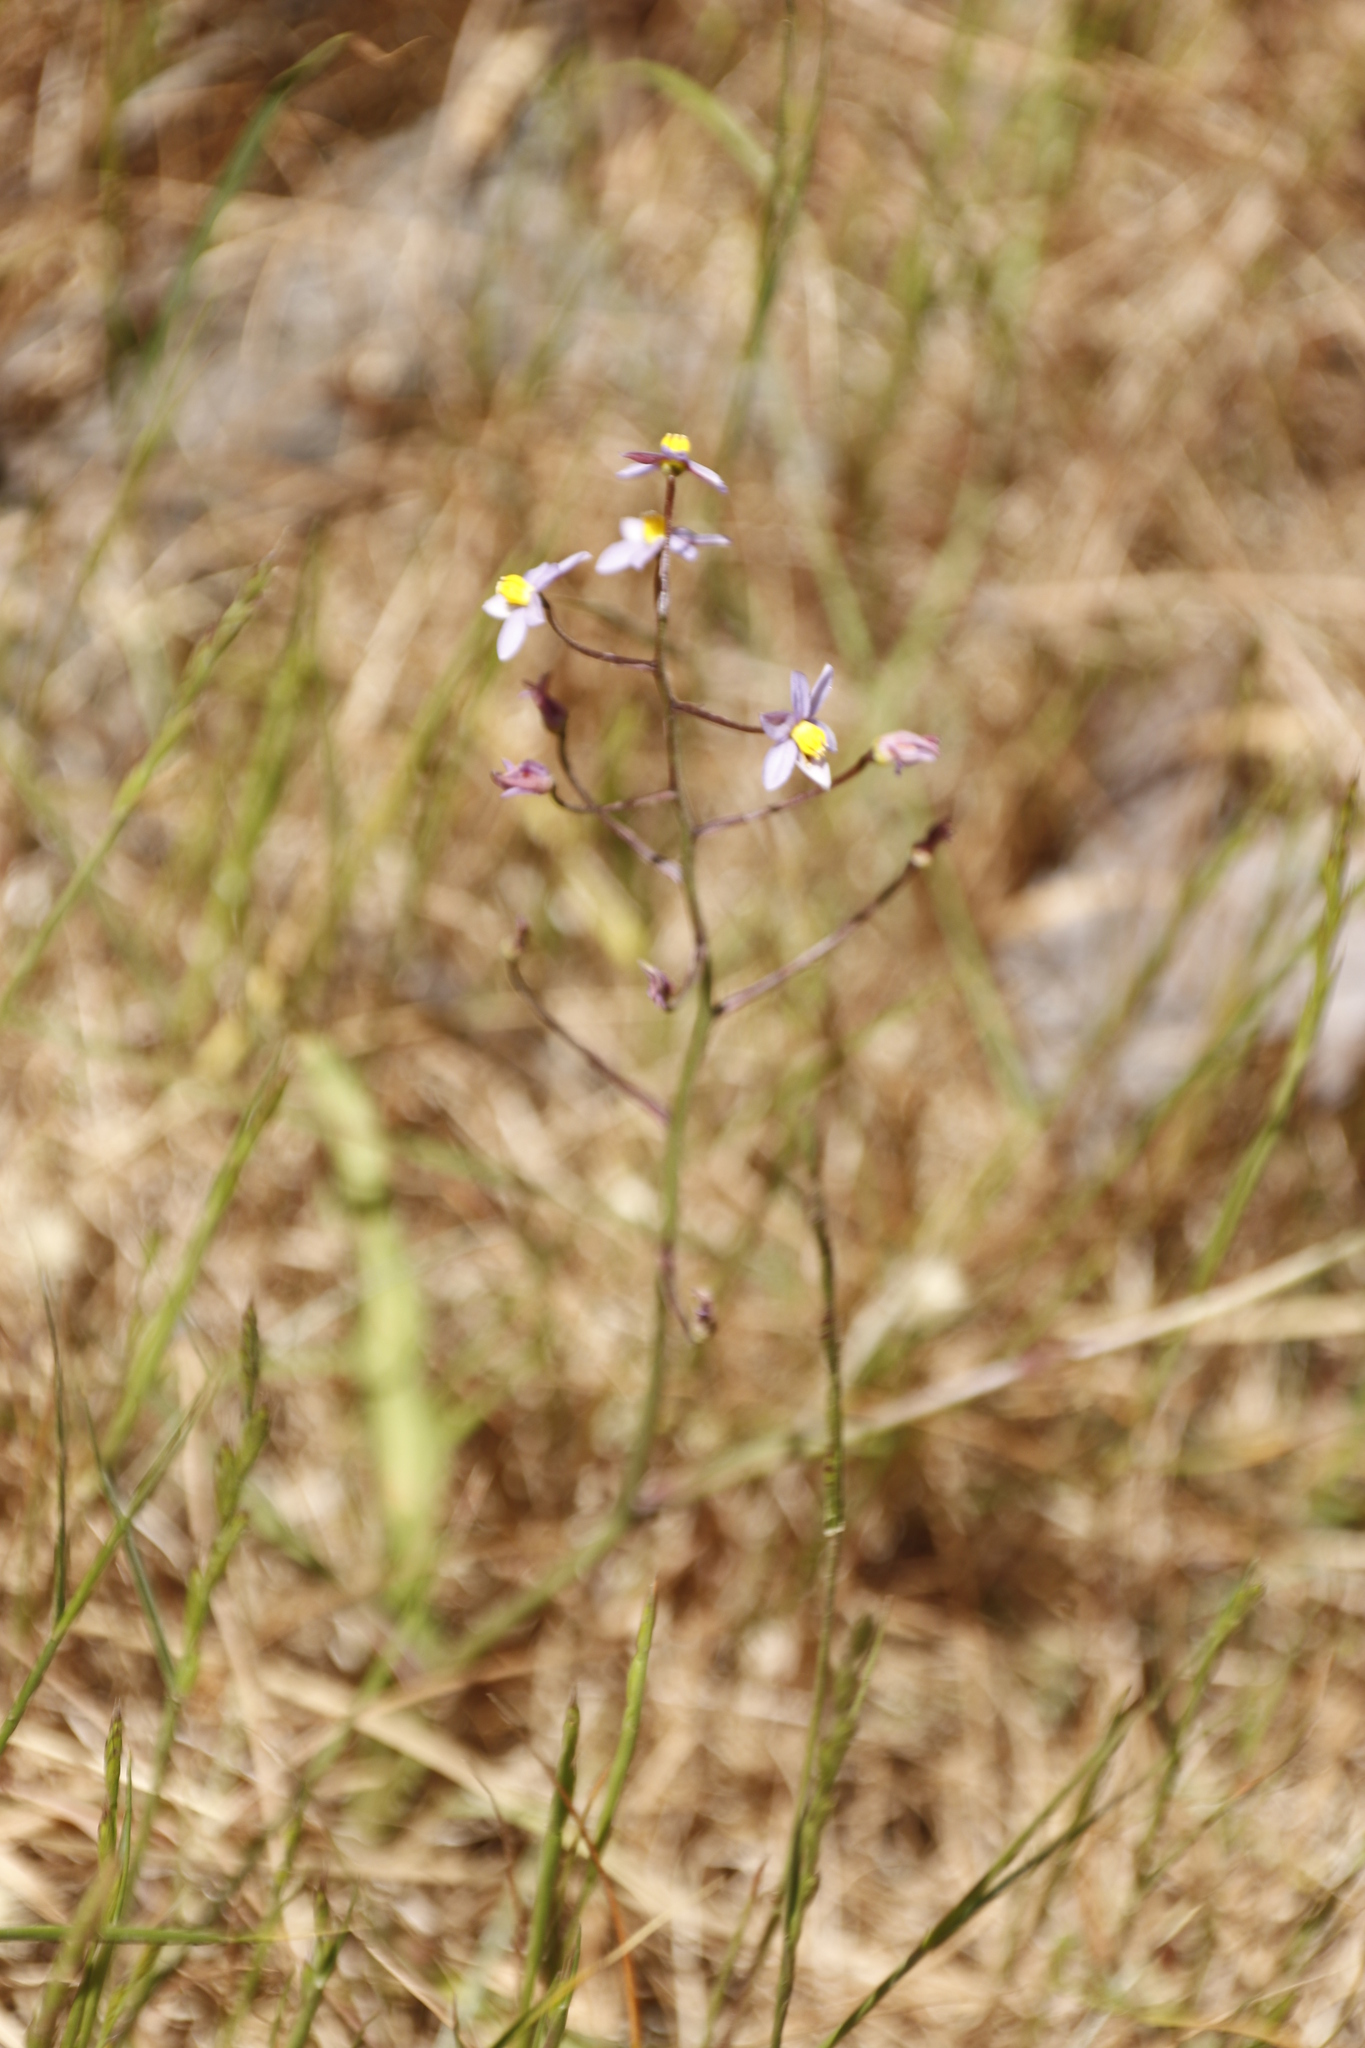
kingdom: Plantae
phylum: Tracheophyta
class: Liliopsida
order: Asparagales
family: Tecophilaeaceae
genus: Cyanella
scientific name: Cyanella hyacinthoides
